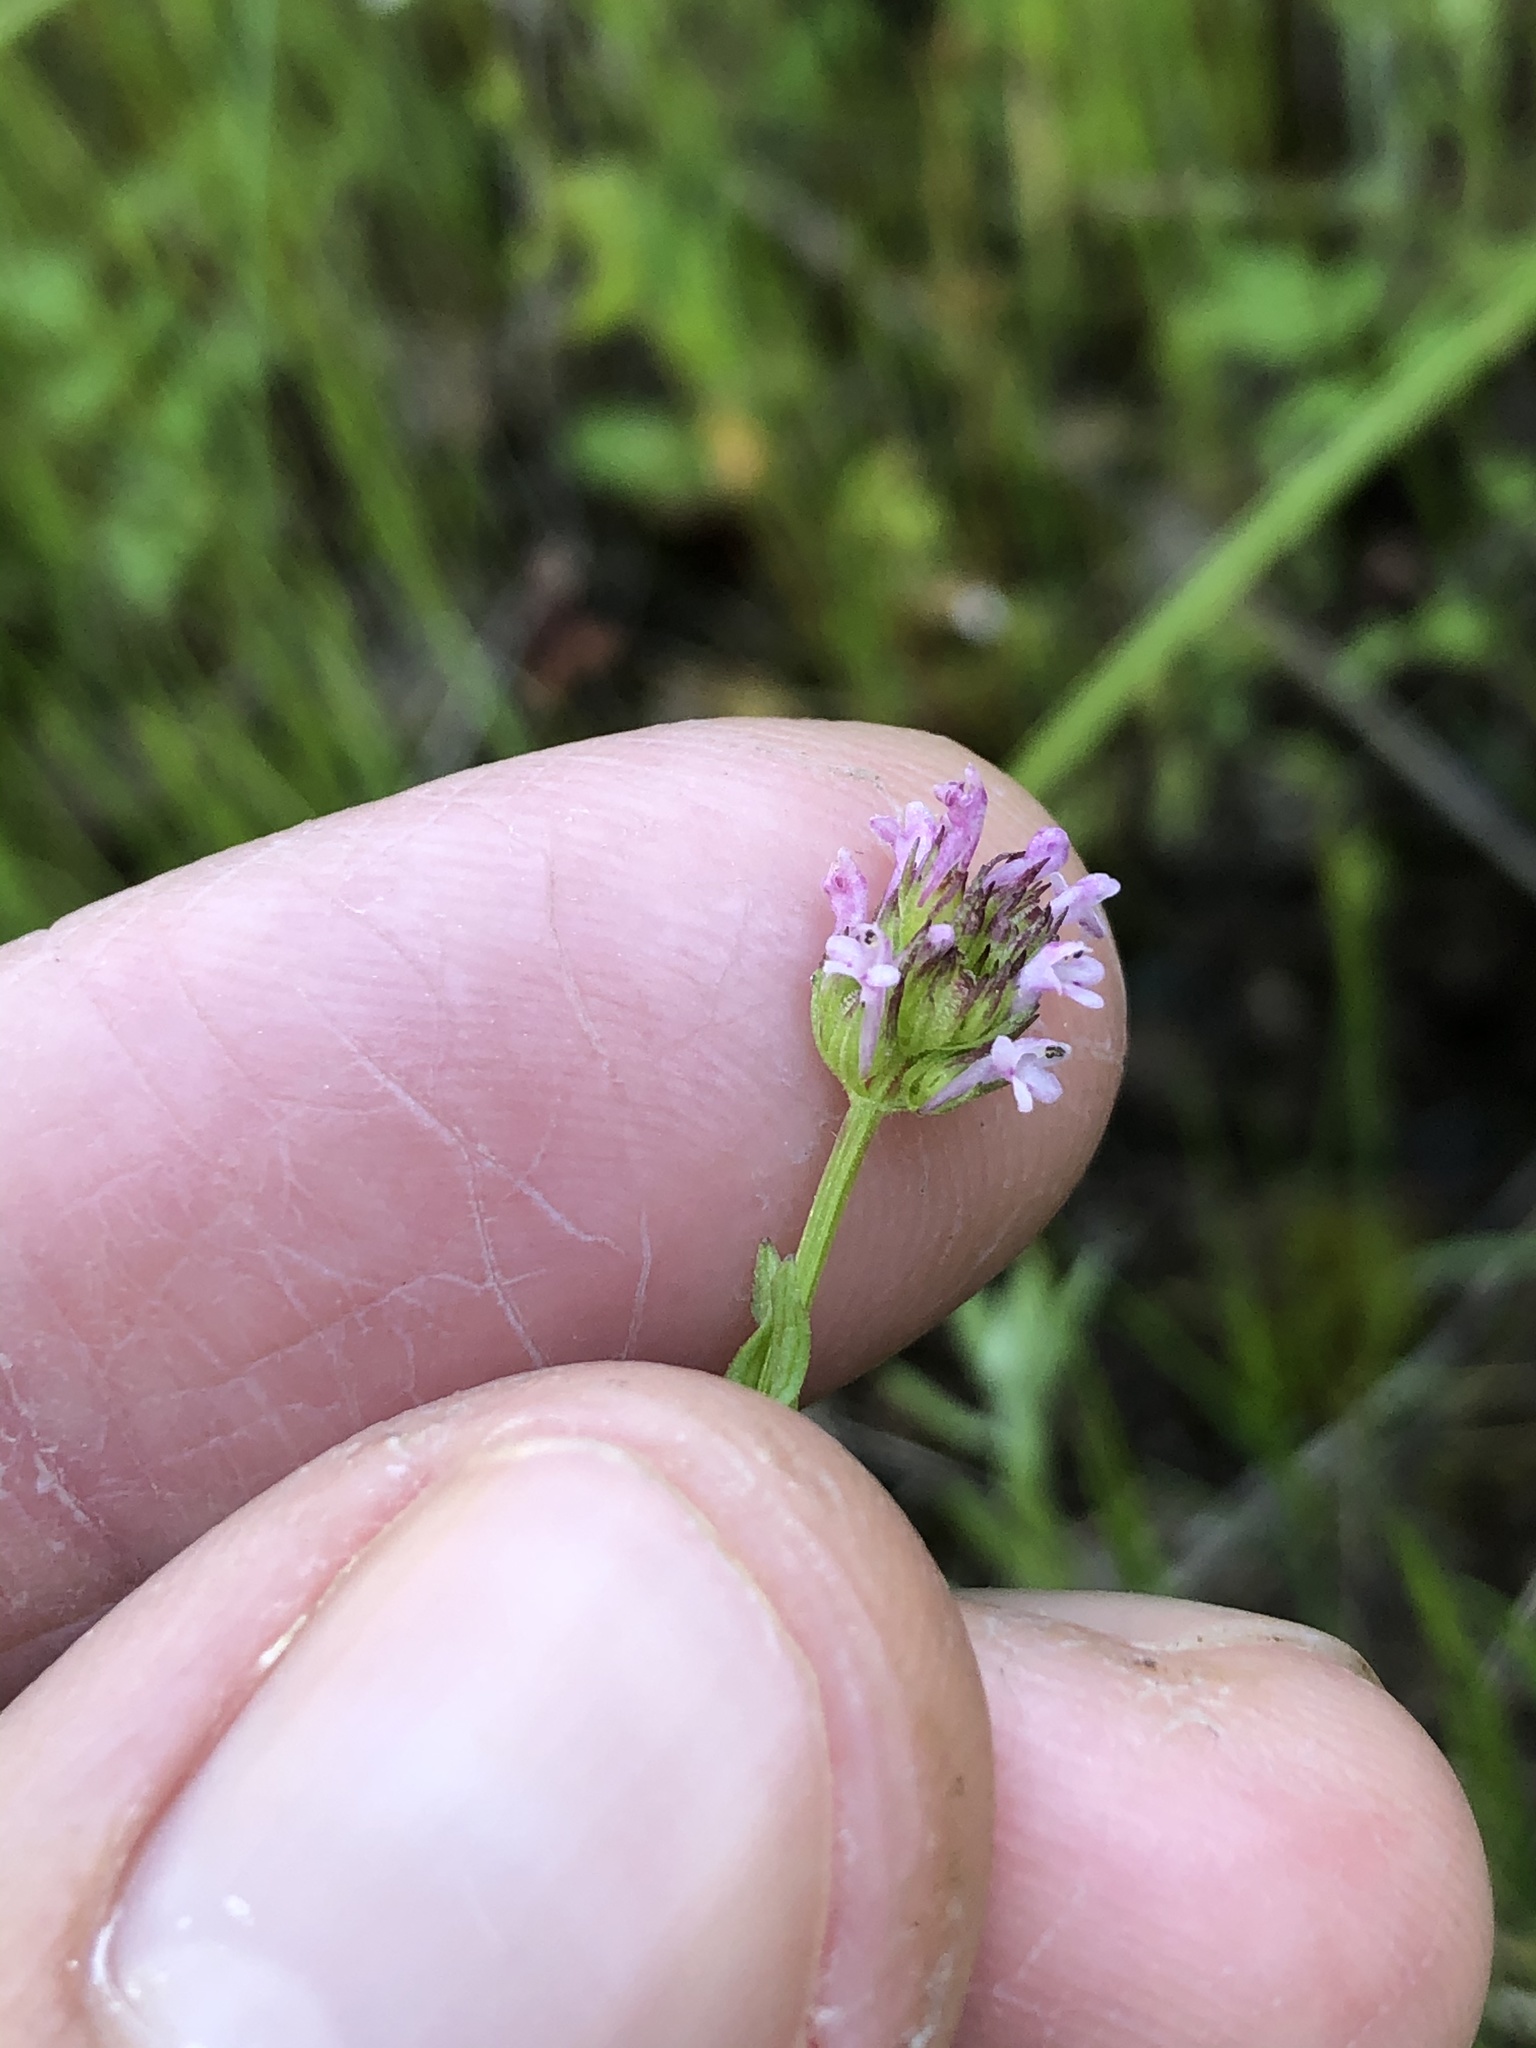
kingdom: Plantae
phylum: Tracheophyta
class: Magnoliopsida
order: Dipsacales
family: Caprifoliaceae
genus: Plectritis
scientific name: Plectritis ciliosa
